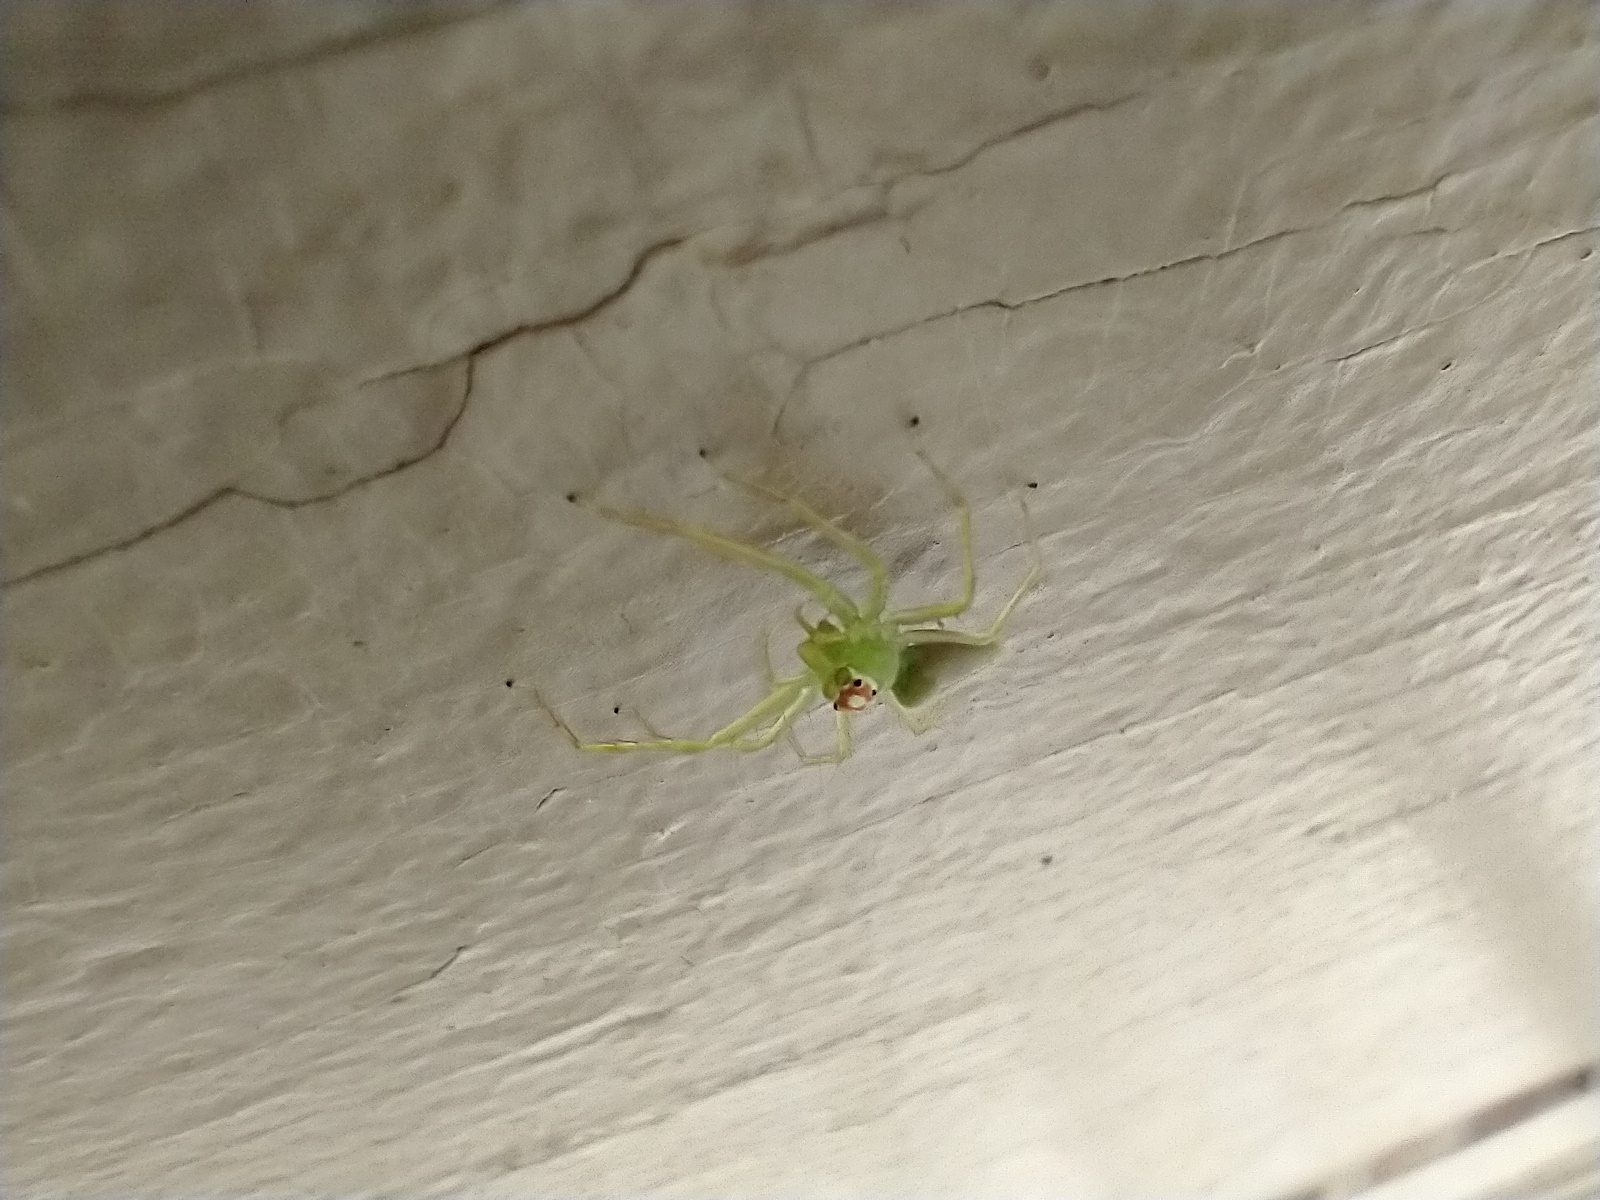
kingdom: Animalia
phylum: Arthropoda
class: Arachnida
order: Araneae
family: Salticidae
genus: Lyssomanes
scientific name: Lyssomanes viridis
